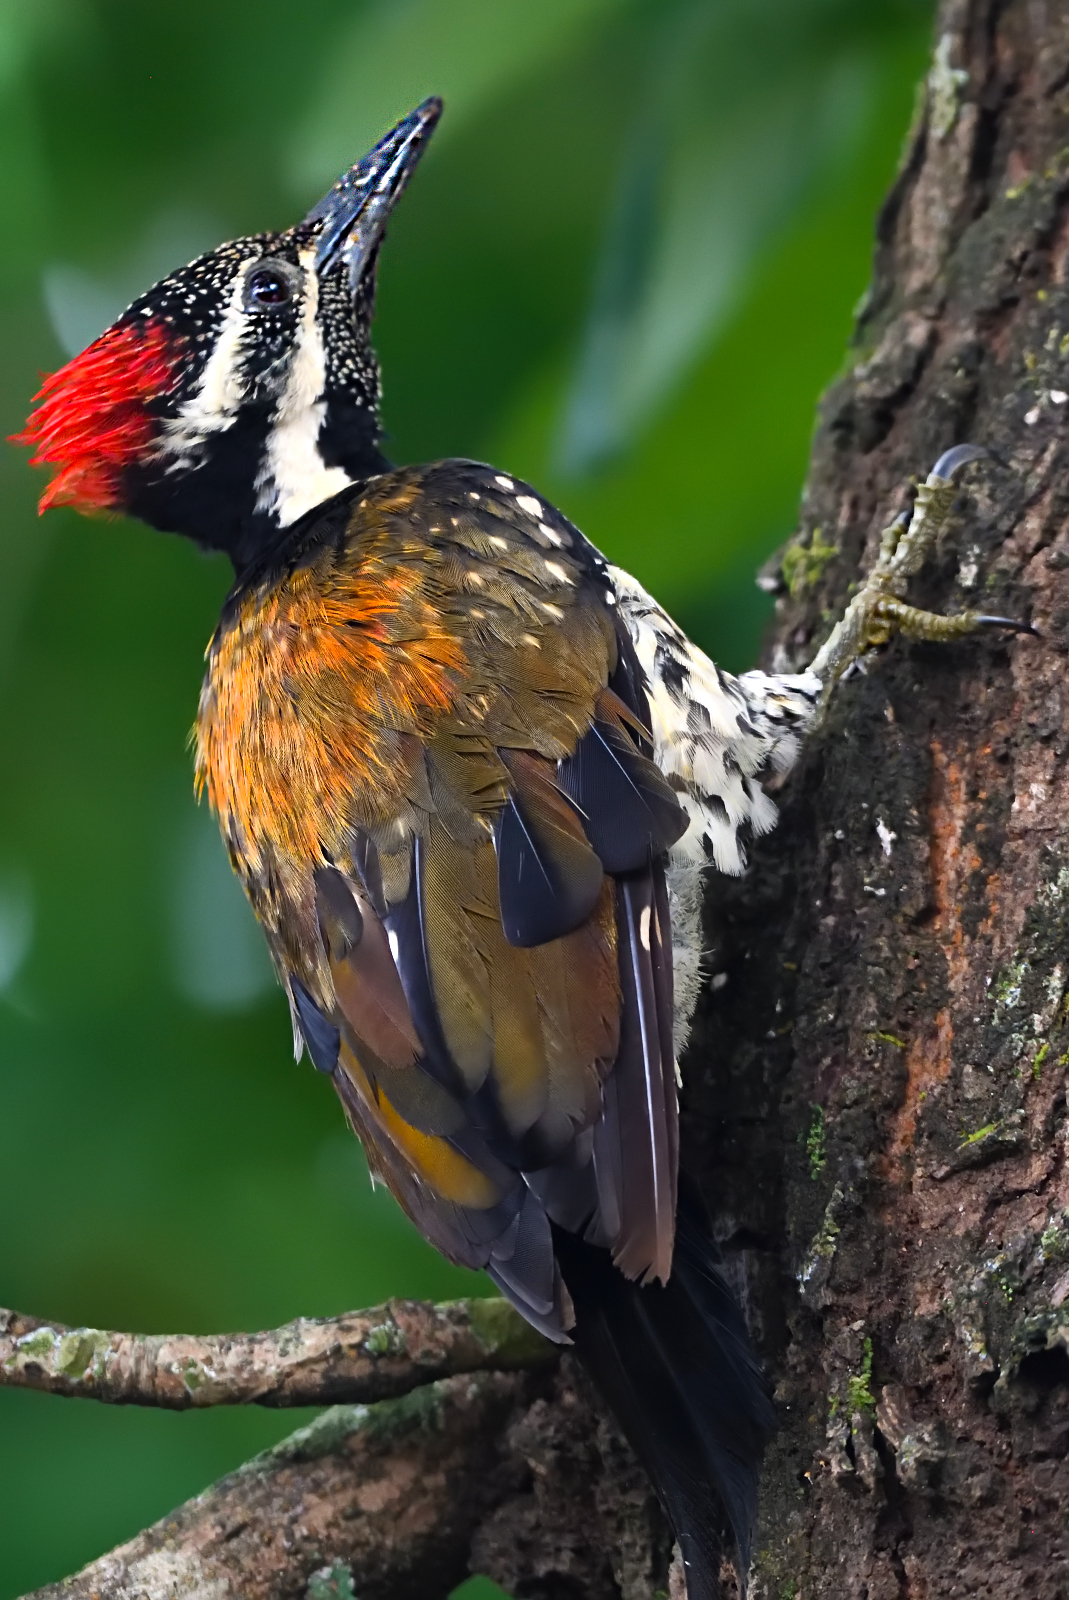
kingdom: Animalia
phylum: Chordata
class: Aves
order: Piciformes
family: Picidae
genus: Dinopium
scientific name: Dinopium benghalense
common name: Black-rumped flameback
